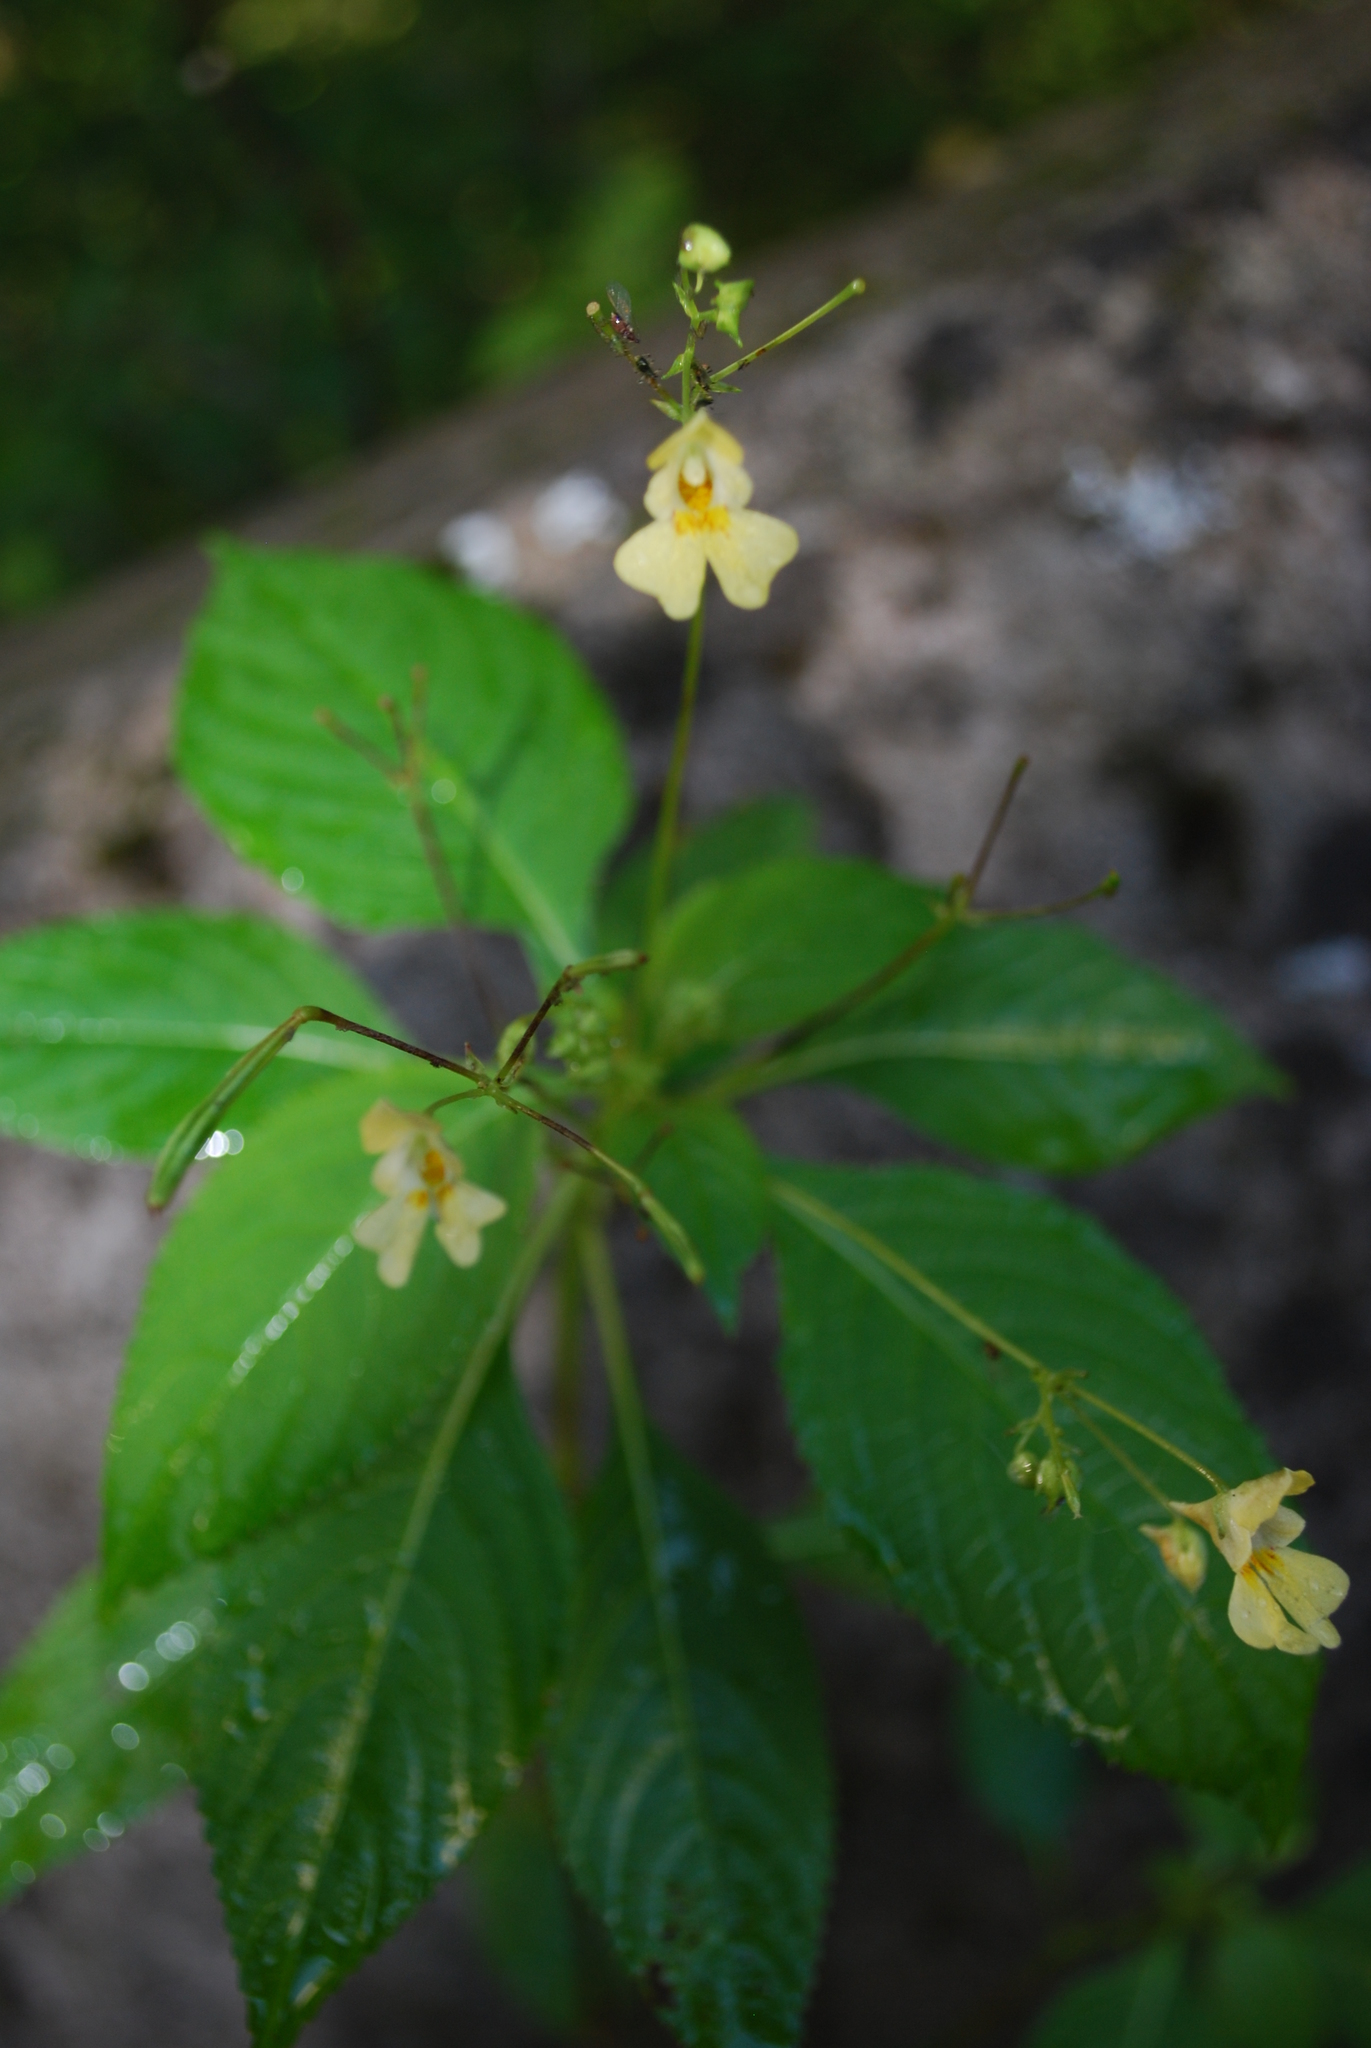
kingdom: Plantae
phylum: Tracheophyta
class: Magnoliopsida
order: Ericales
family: Balsaminaceae
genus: Impatiens
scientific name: Impatiens parviflora
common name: Small balsam
